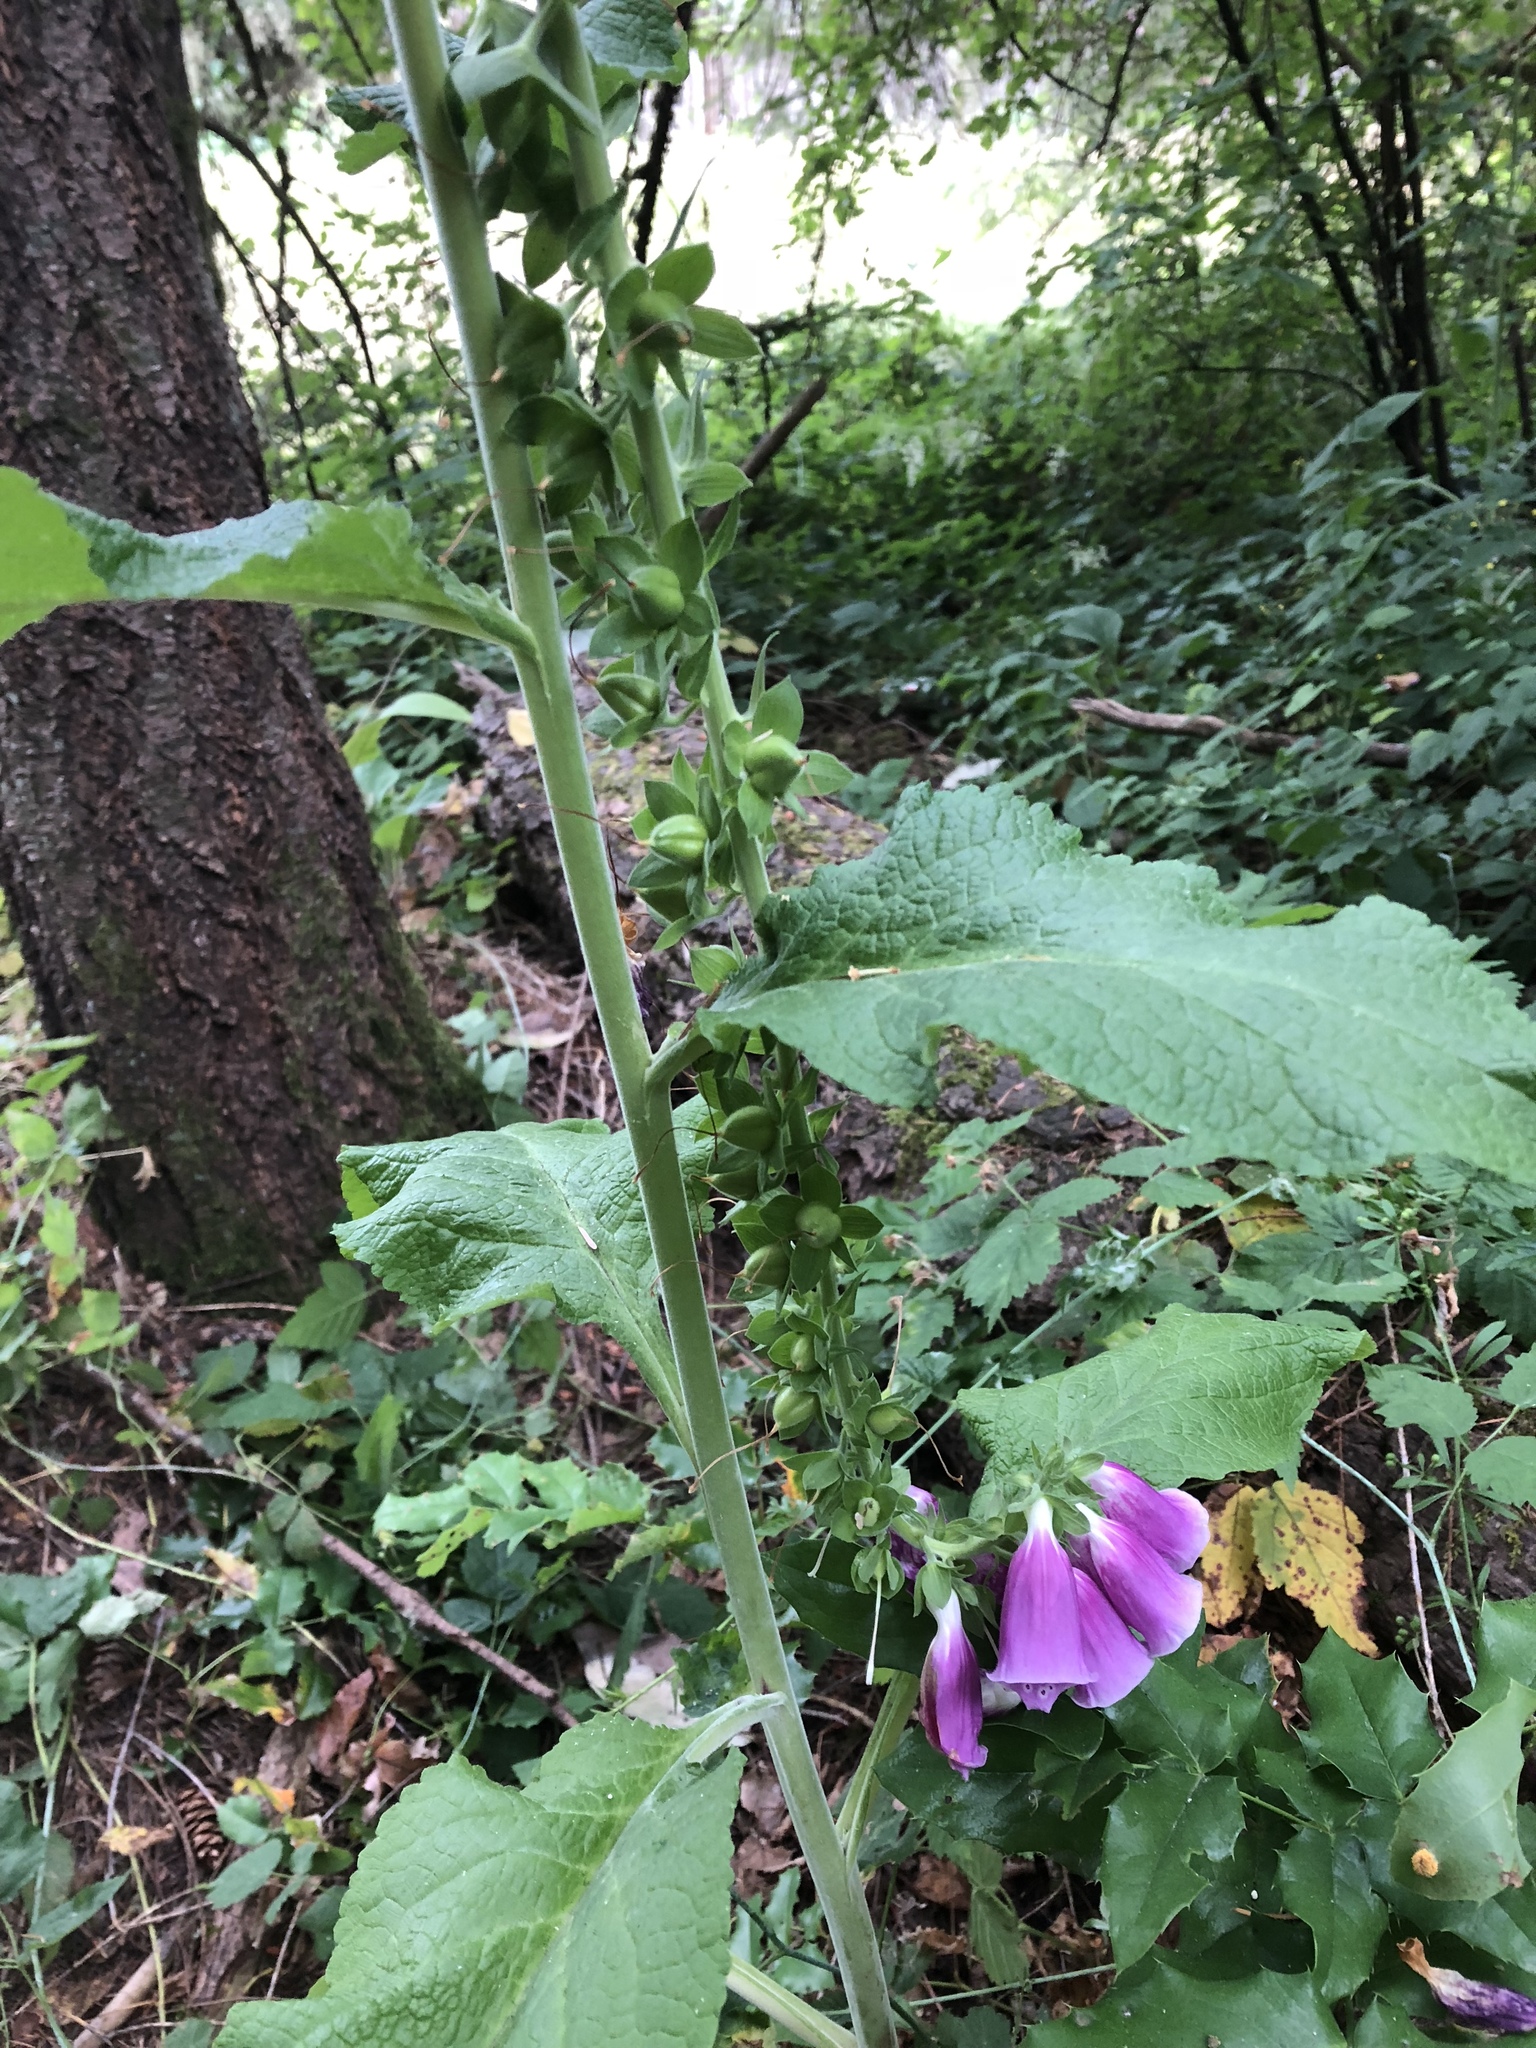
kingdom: Plantae
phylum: Tracheophyta
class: Magnoliopsida
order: Lamiales
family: Plantaginaceae
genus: Digitalis
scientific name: Digitalis purpurea
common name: Foxglove
